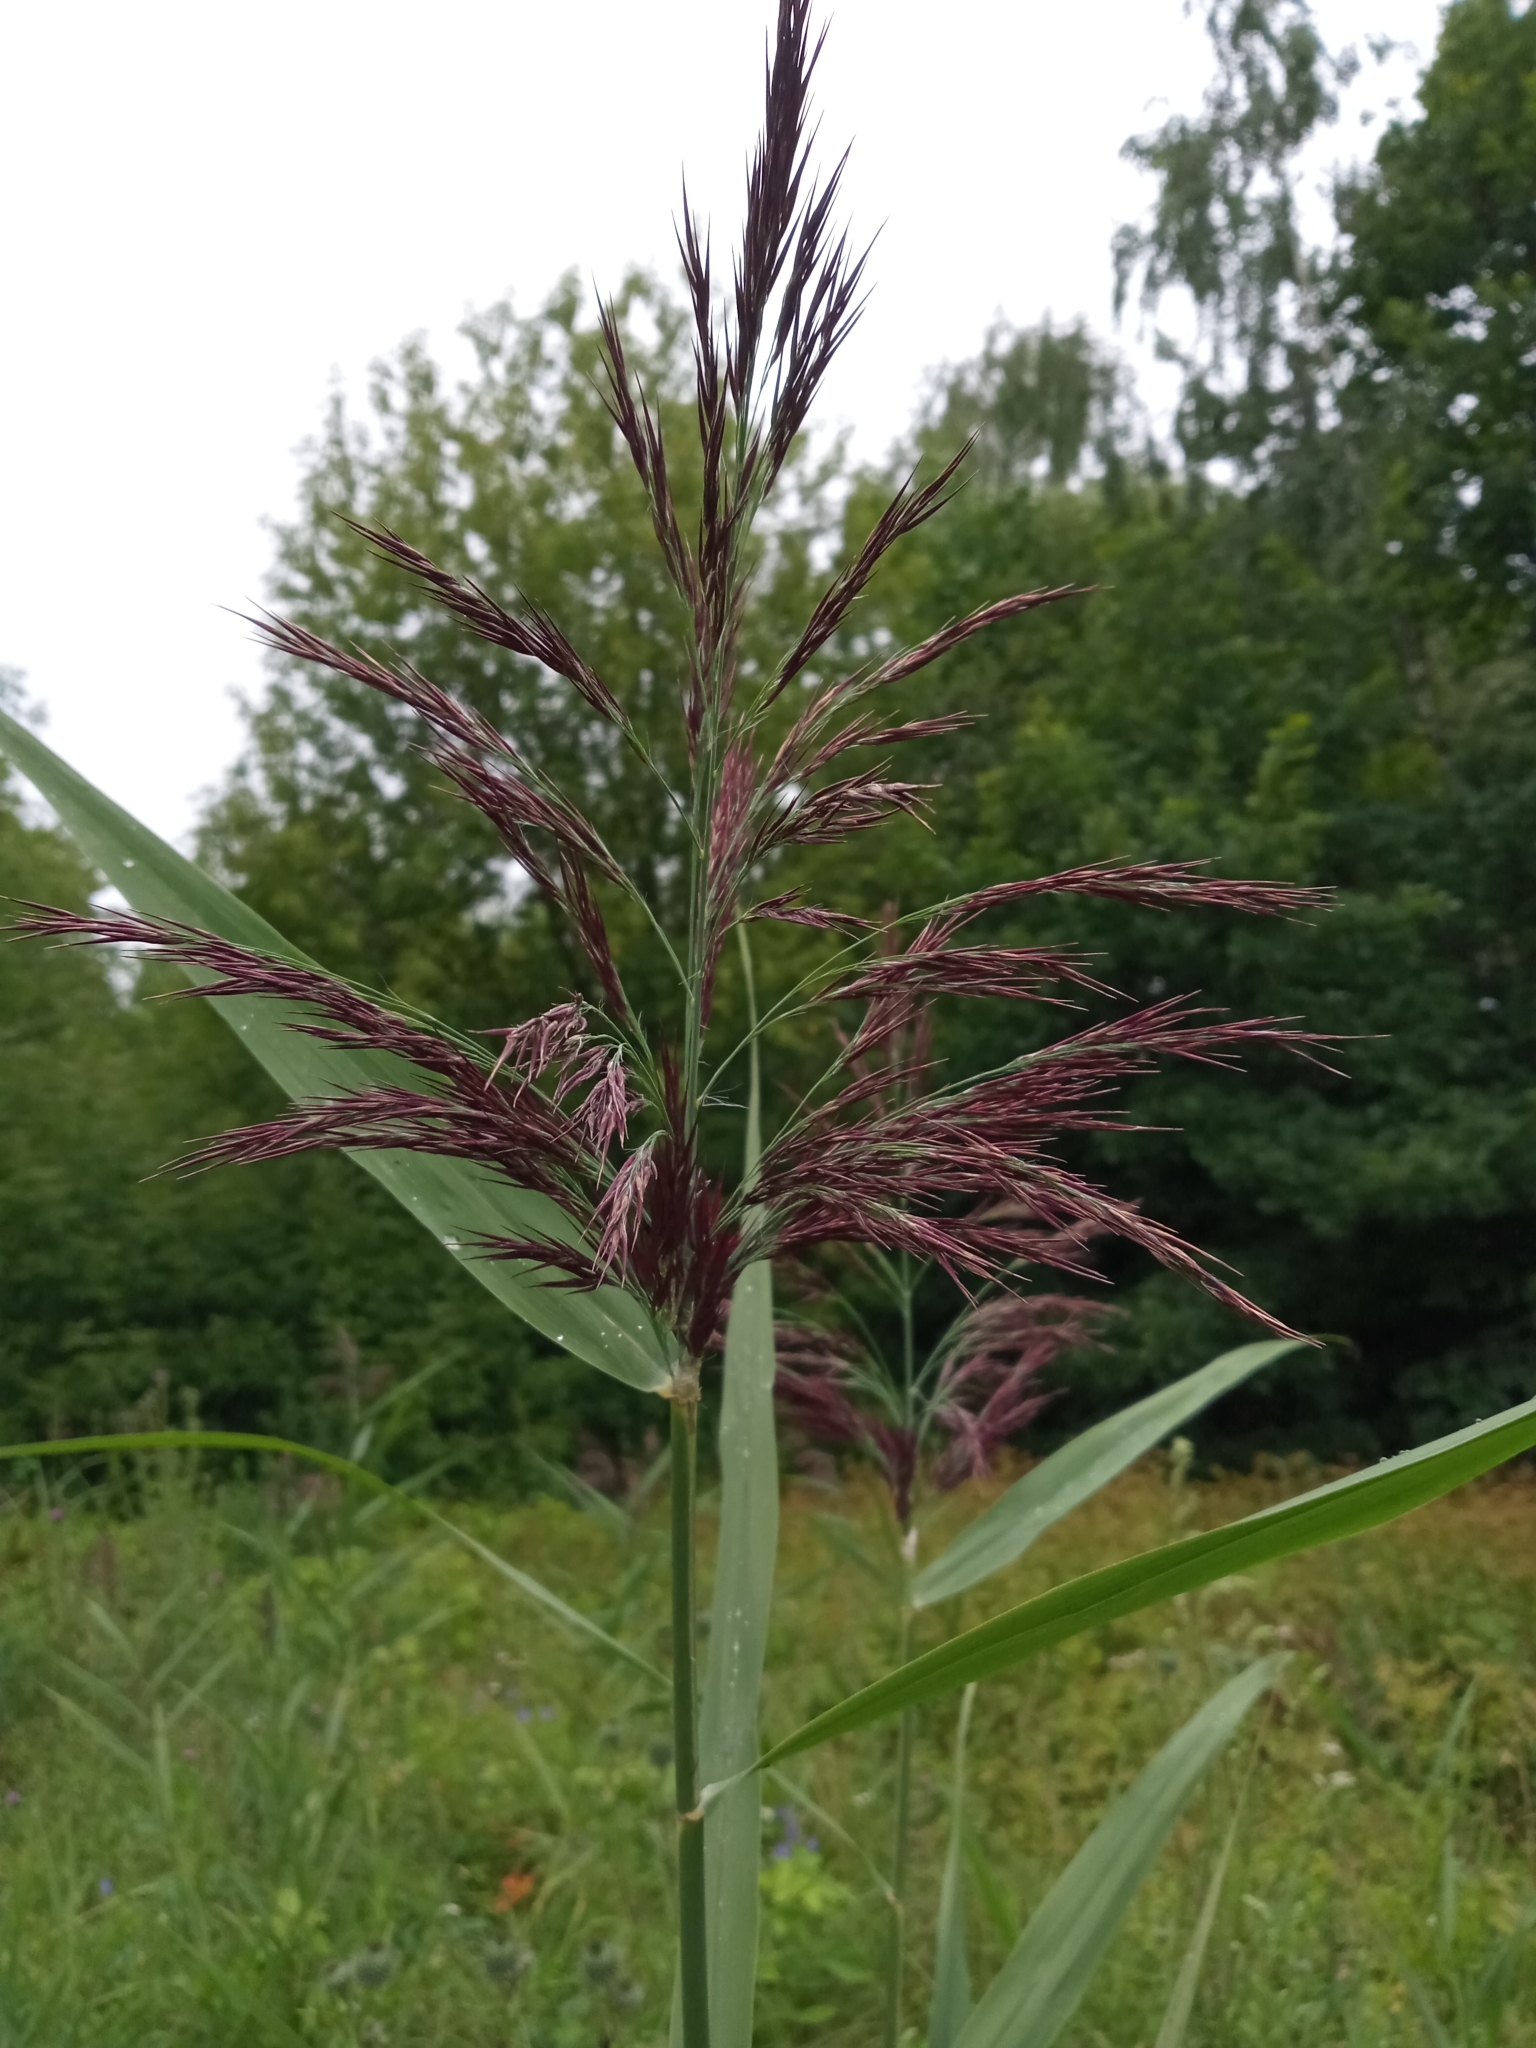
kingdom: Plantae
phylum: Tracheophyta
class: Liliopsida
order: Poales
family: Poaceae
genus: Phragmites
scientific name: Phragmites australis
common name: Common reed
